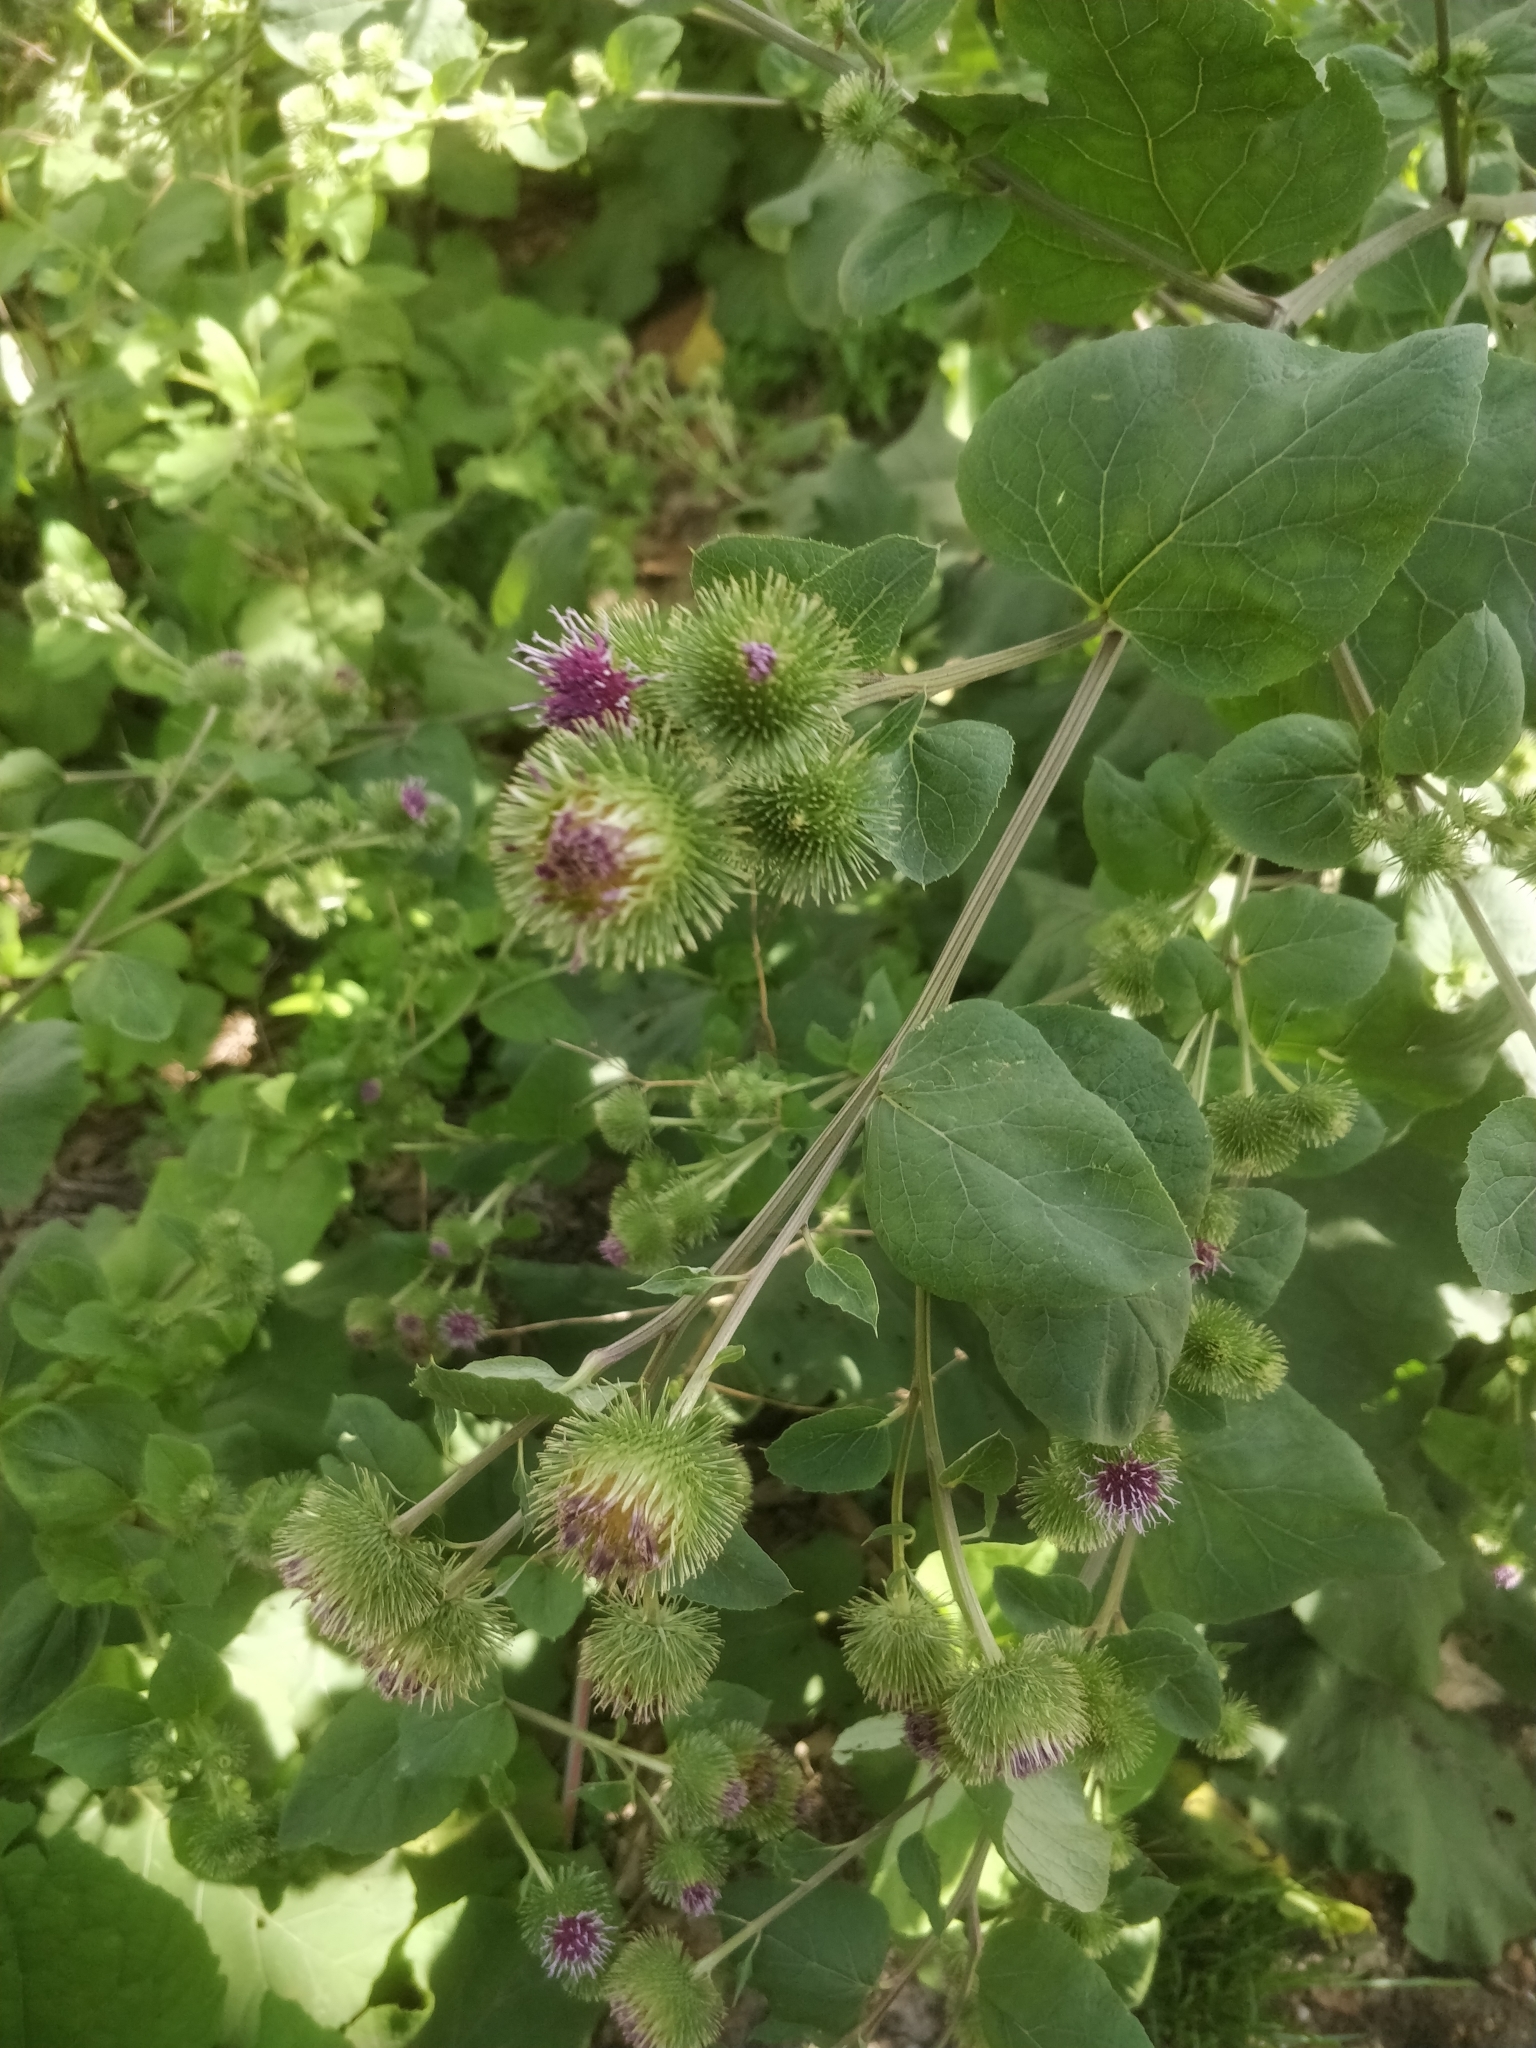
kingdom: Plantae
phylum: Tracheophyta
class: Magnoliopsida
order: Asterales
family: Asteraceae
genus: Arctium
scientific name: Arctium lappa
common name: Greater burdock
